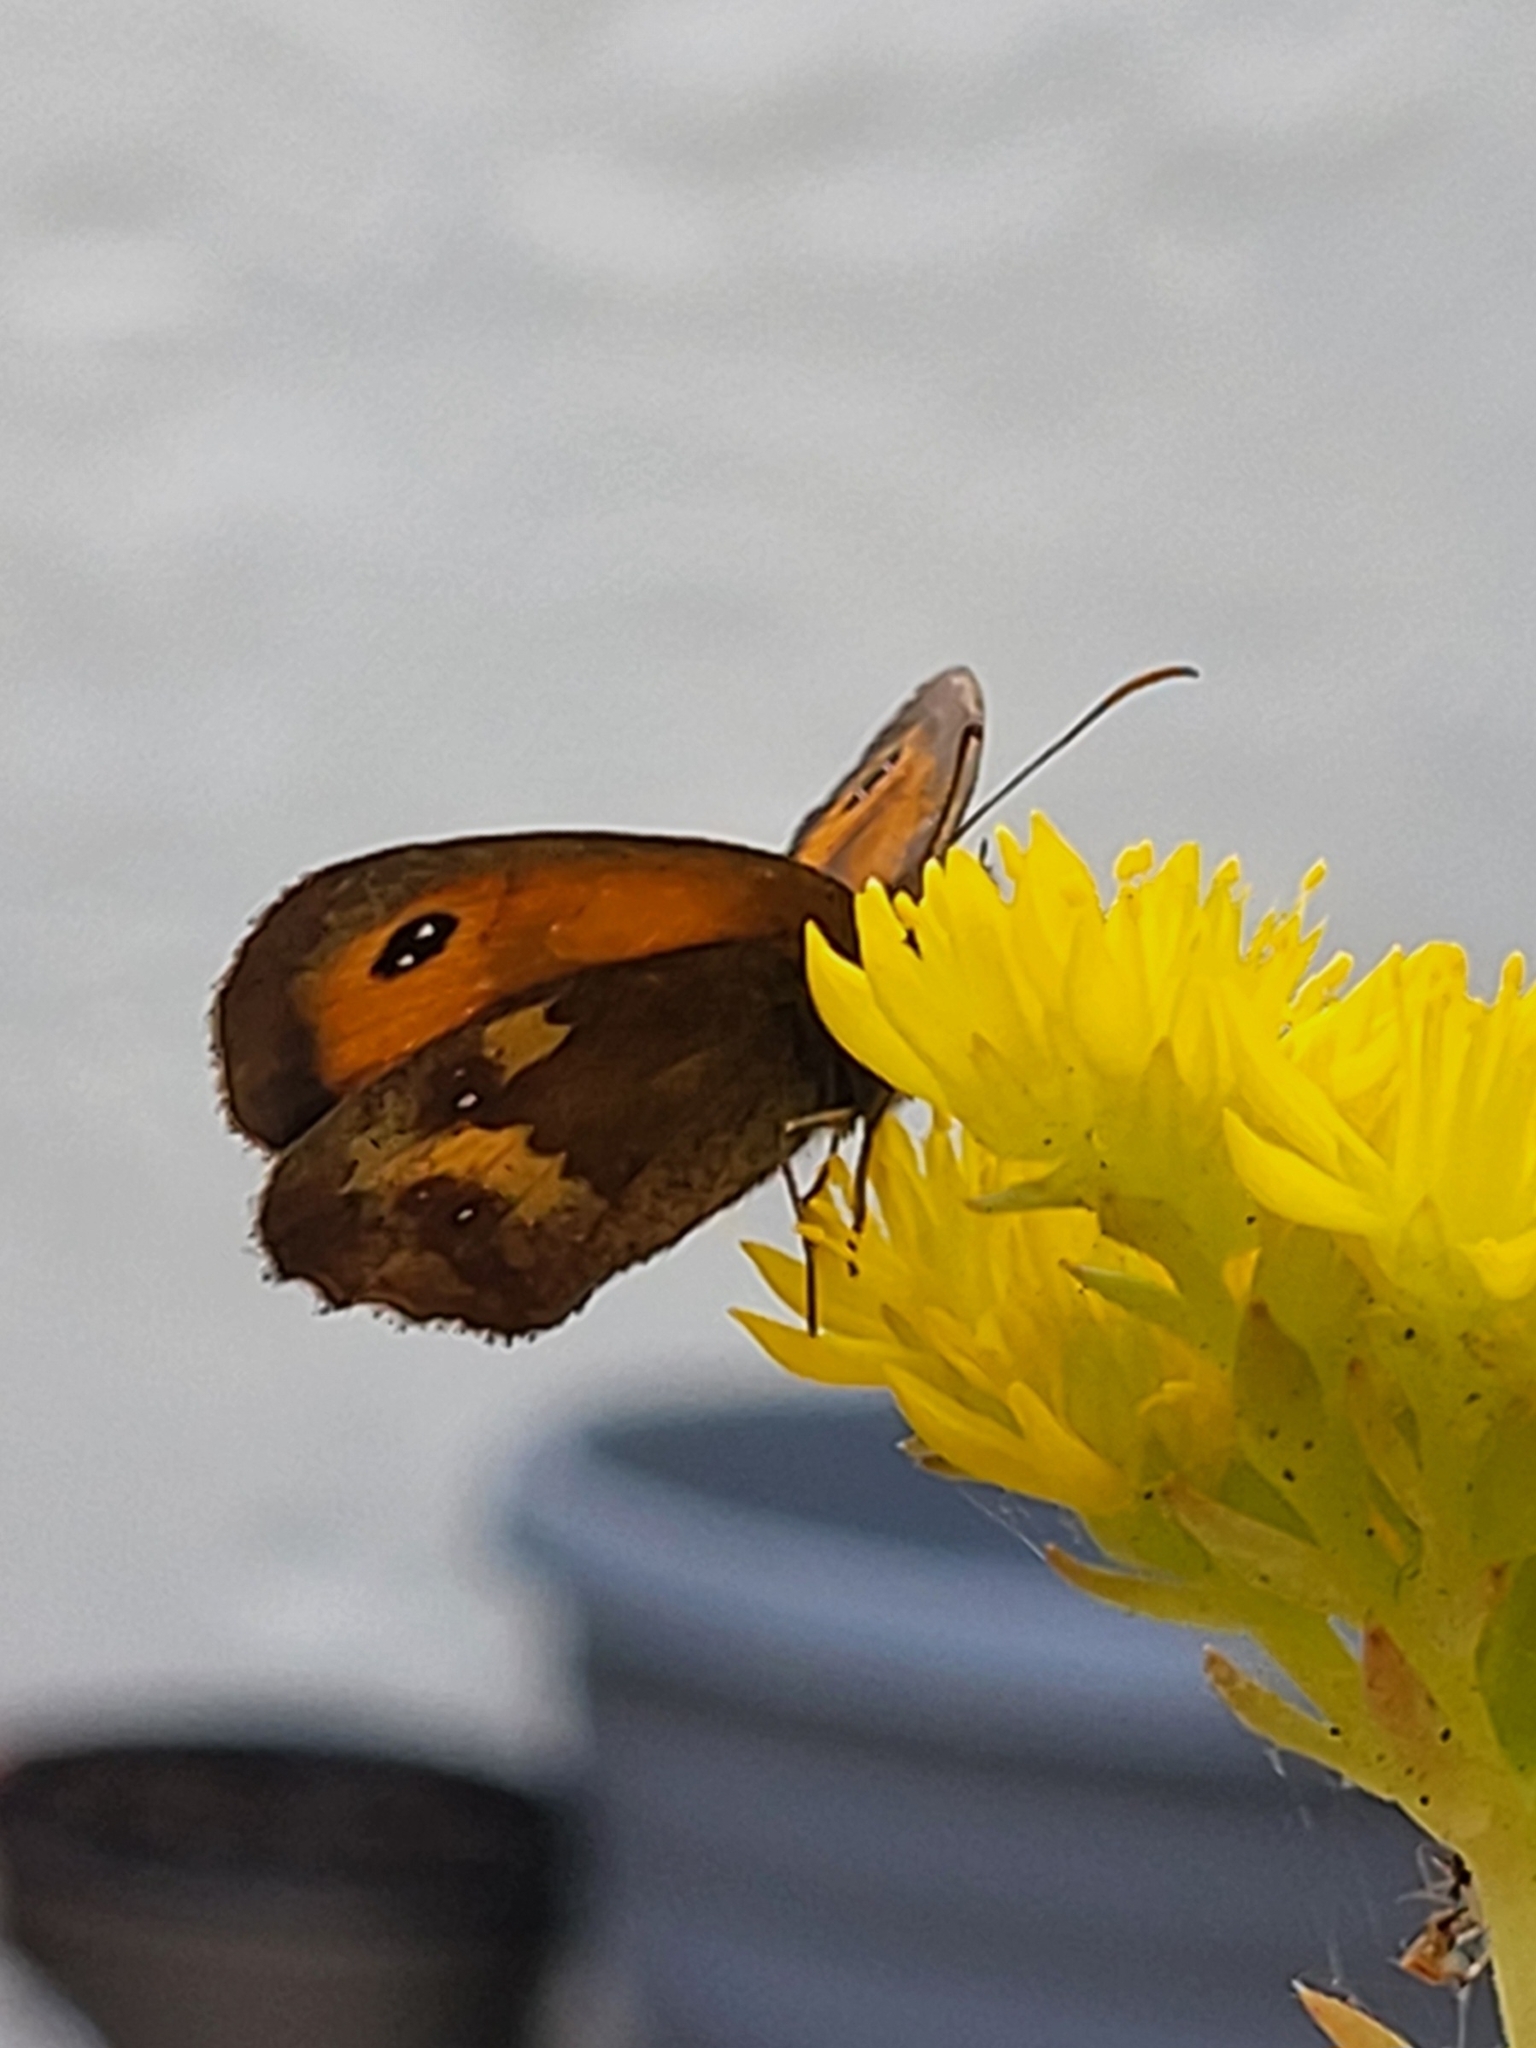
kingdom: Animalia
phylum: Arthropoda
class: Insecta
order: Lepidoptera
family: Nymphalidae
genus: Pyronia
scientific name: Pyronia tithonus
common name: Gatekeeper
